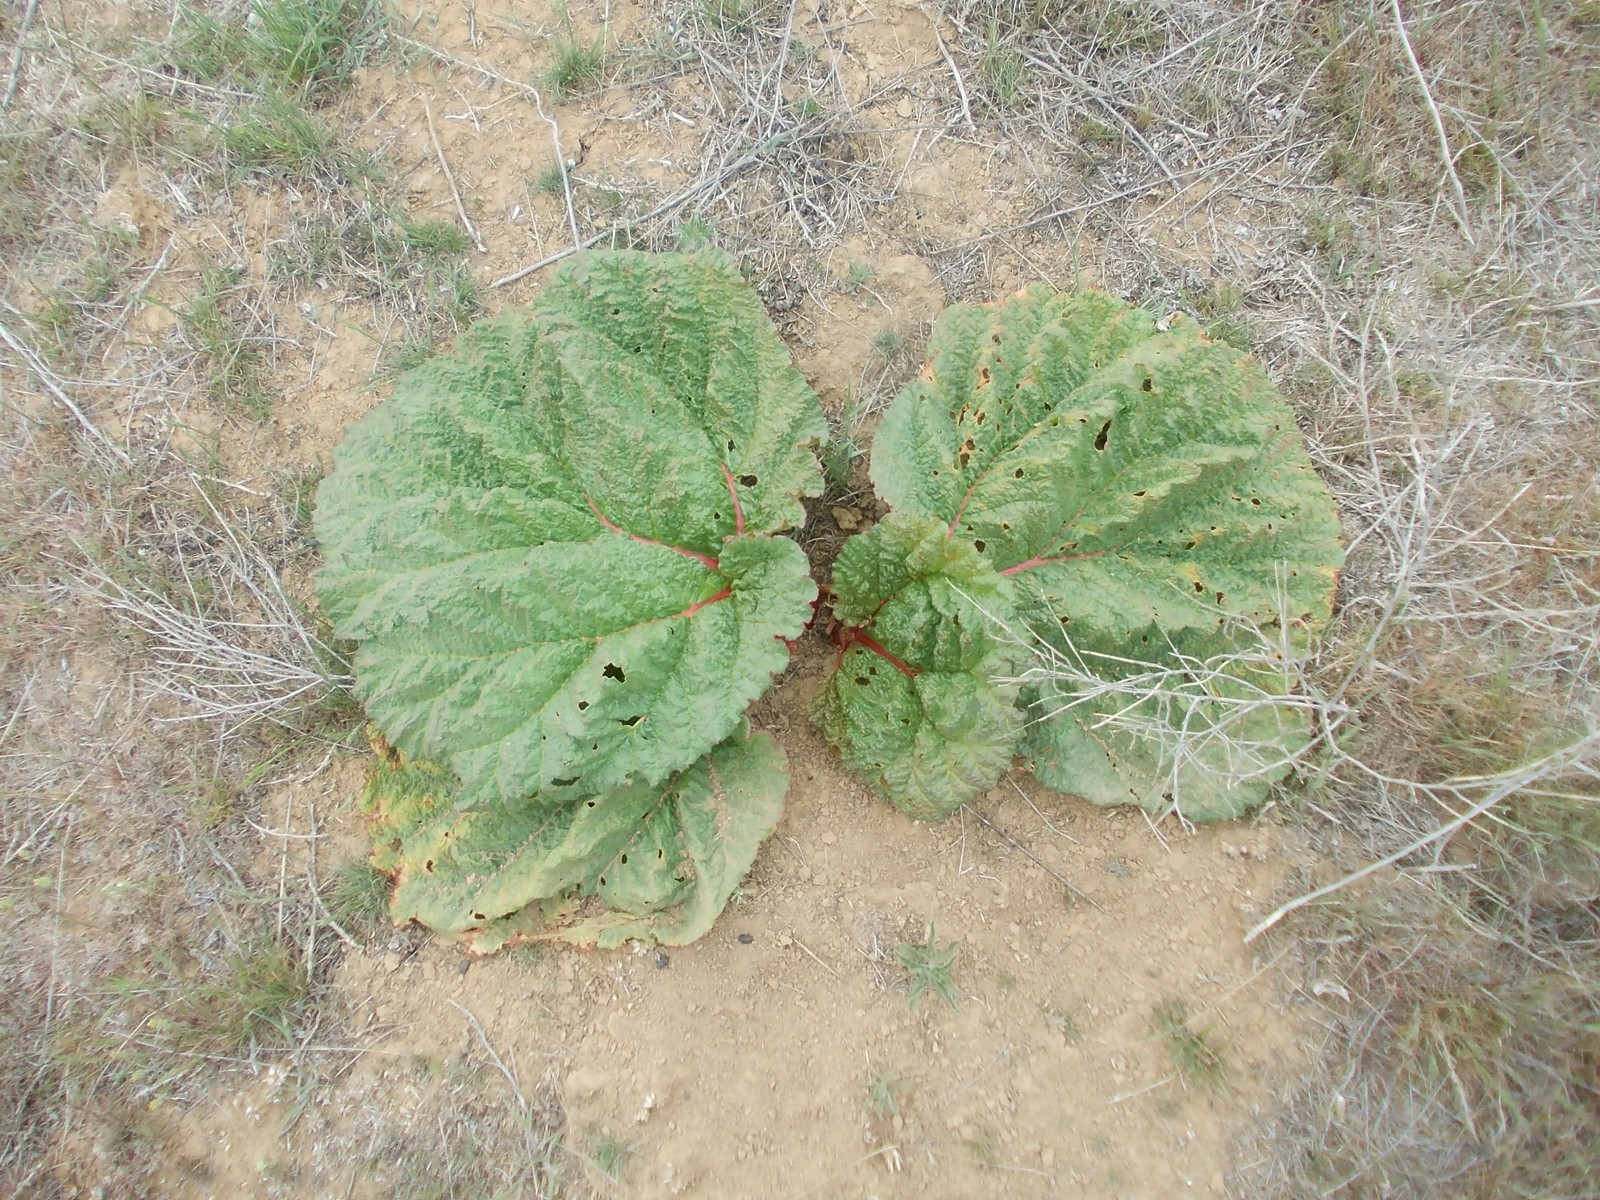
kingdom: Plantae
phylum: Tracheophyta
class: Magnoliopsida
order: Caryophyllales
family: Polygonaceae
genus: Rheum
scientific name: Rheum tataricum
